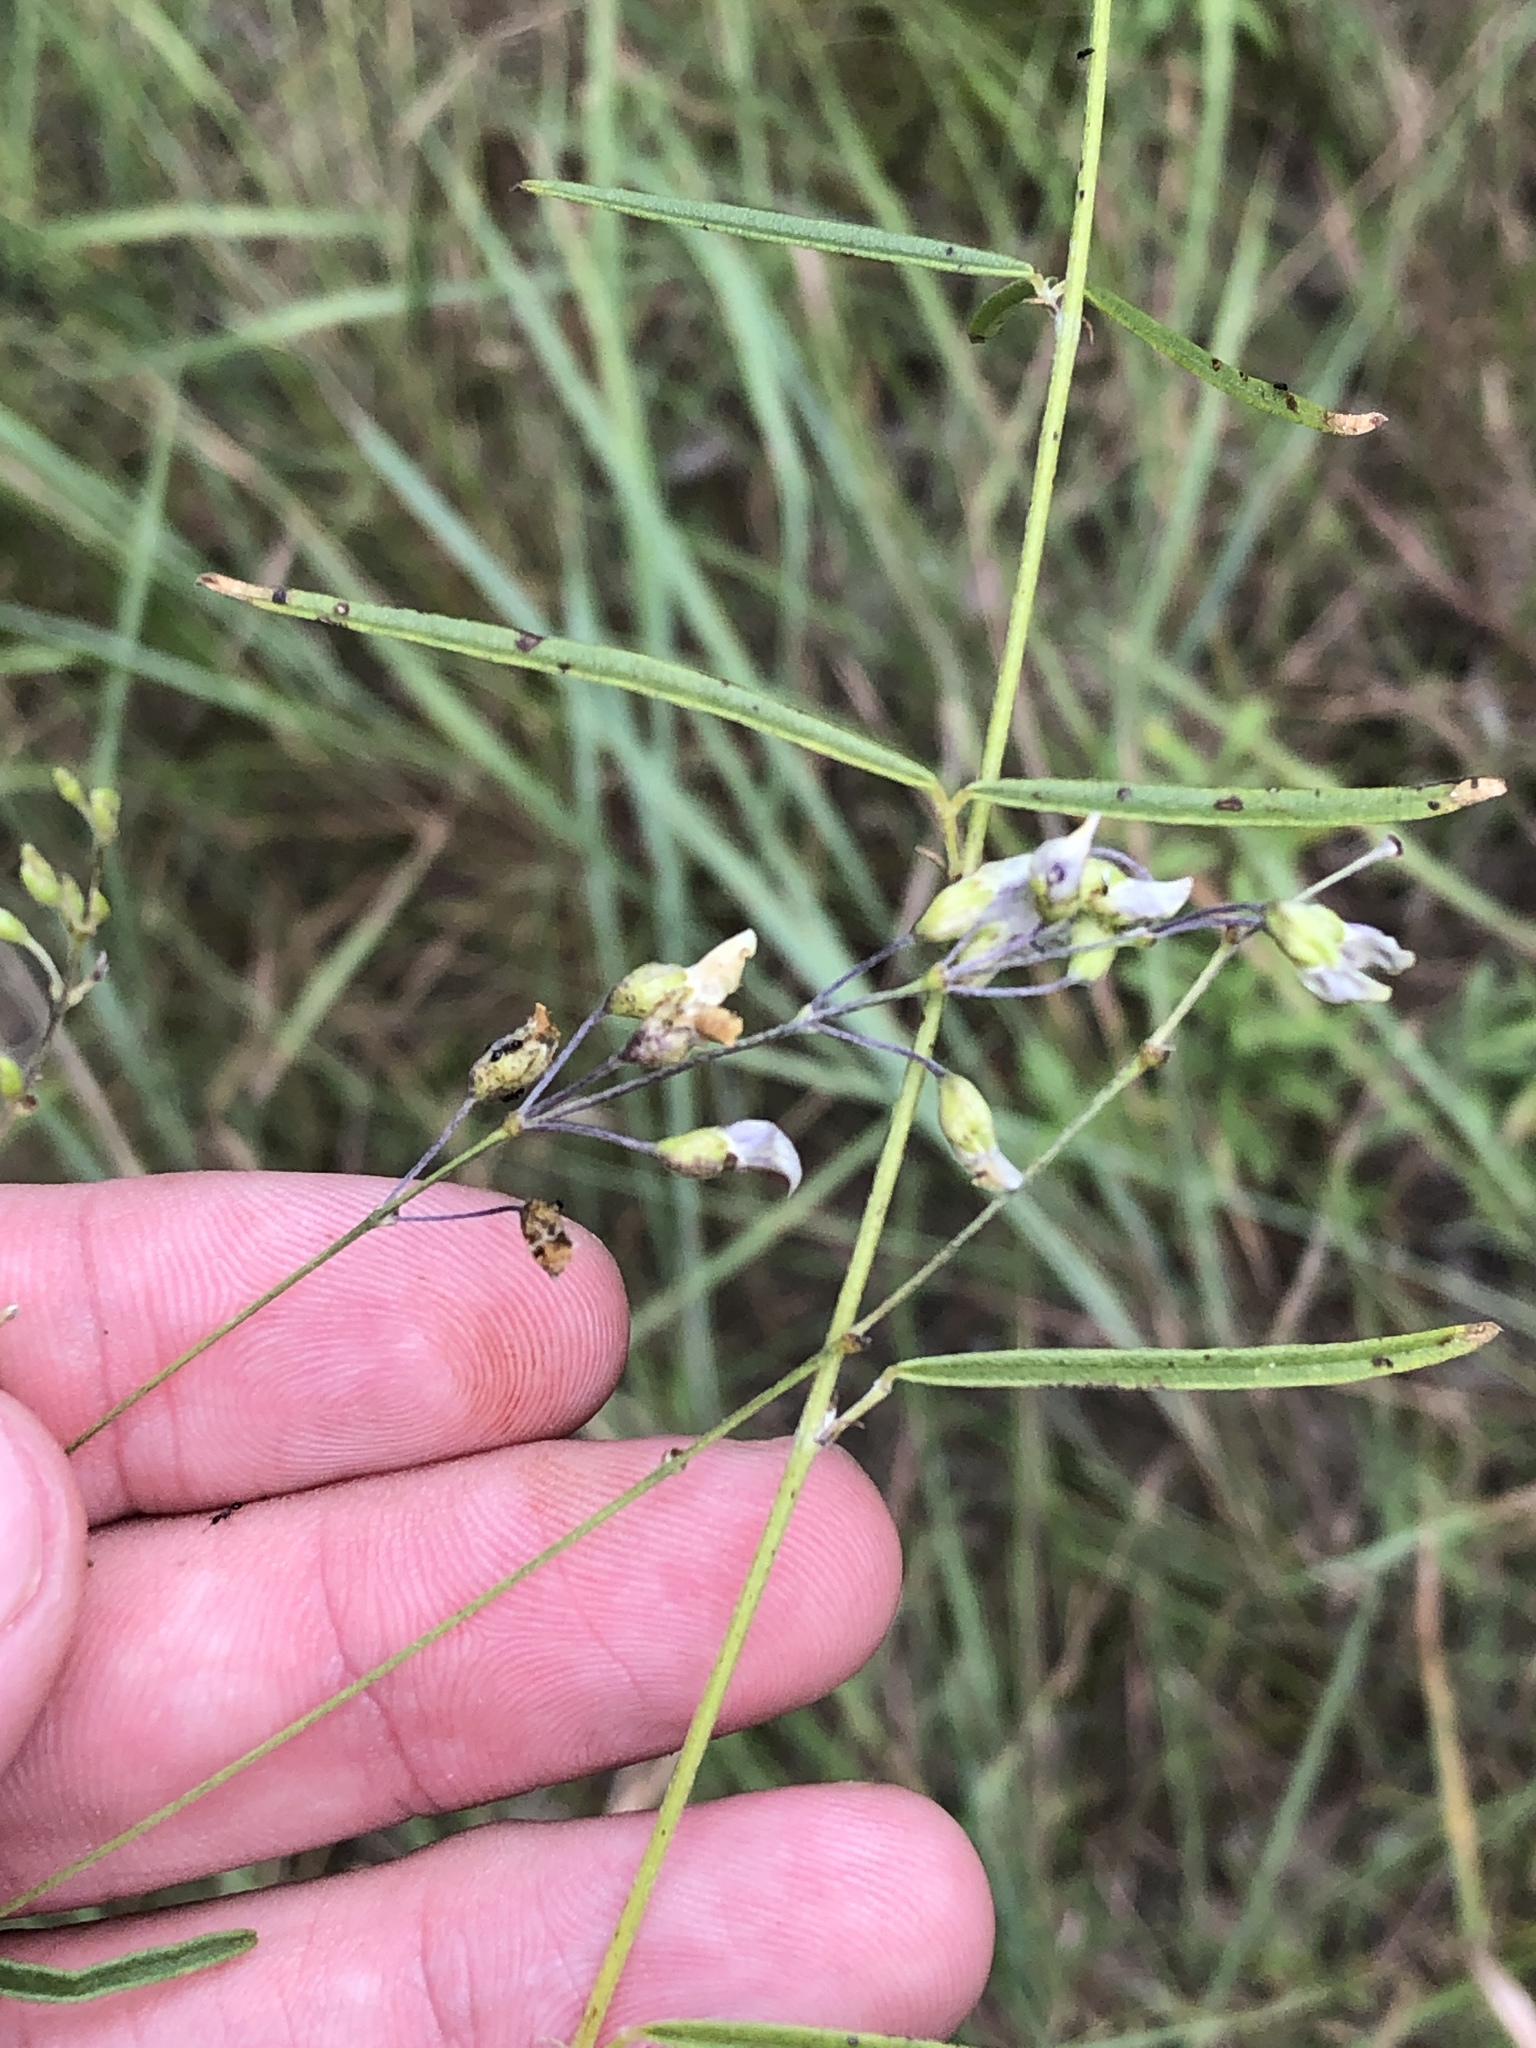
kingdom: Plantae
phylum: Tracheophyta
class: Magnoliopsida
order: Fabales
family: Fabaceae
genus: Pediomelum
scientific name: Pediomelum linearifolium
